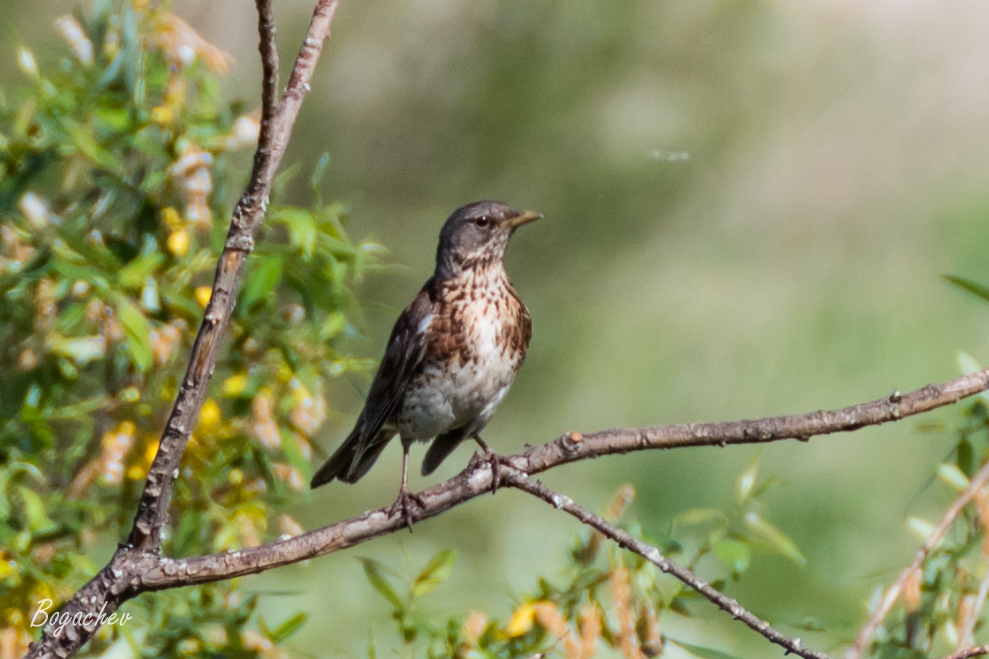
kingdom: Animalia
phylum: Chordata
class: Aves
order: Passeriformes
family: Turdidae
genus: Turdus
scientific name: Turdus pilaris
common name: Fieldfare
